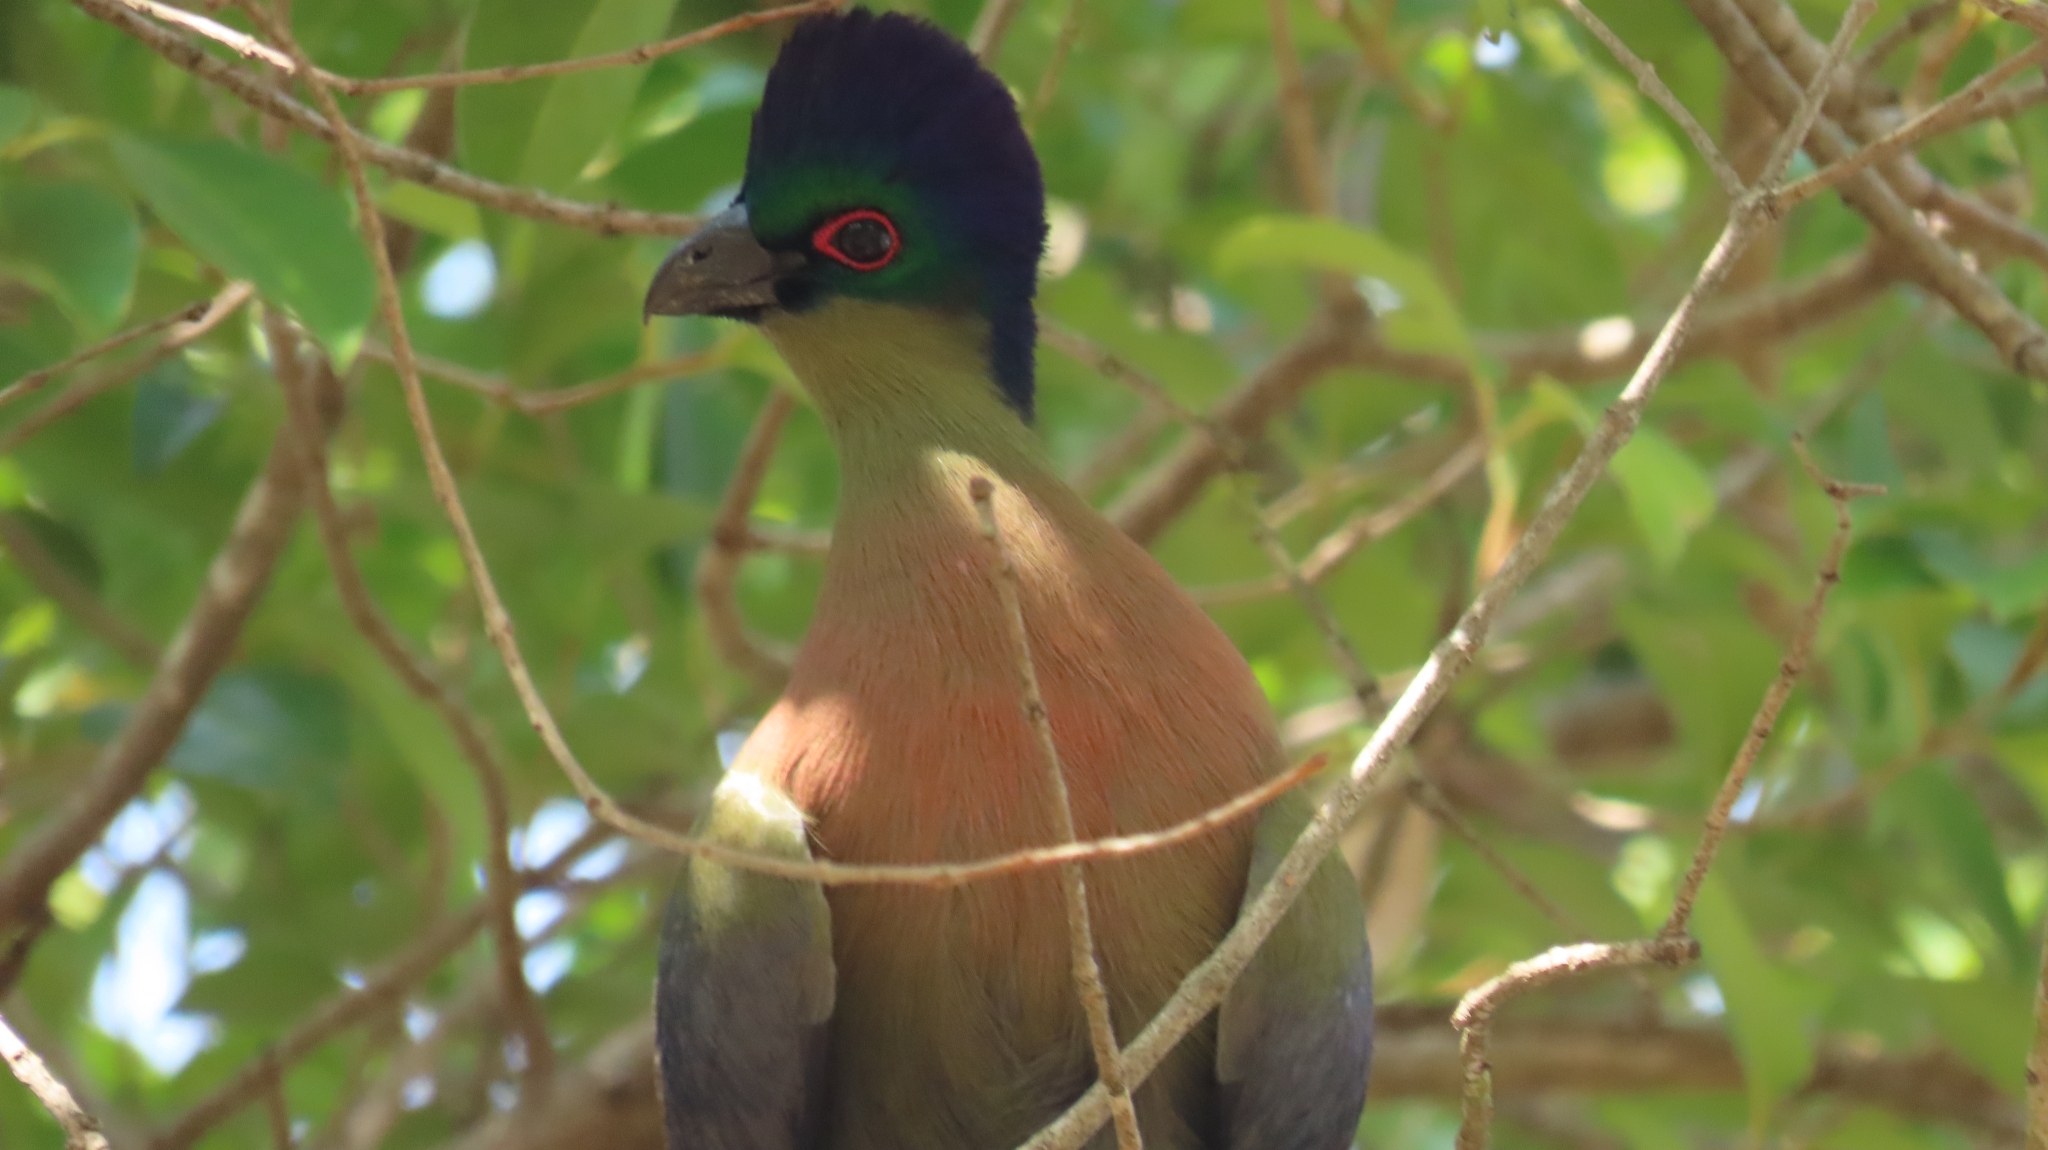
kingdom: Animalia
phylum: Chordata
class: Aves
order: Musophagiformes
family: Musophagidae
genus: Tauraco
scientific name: Tauraco porphyreolophus
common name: Purple-crested turaco
